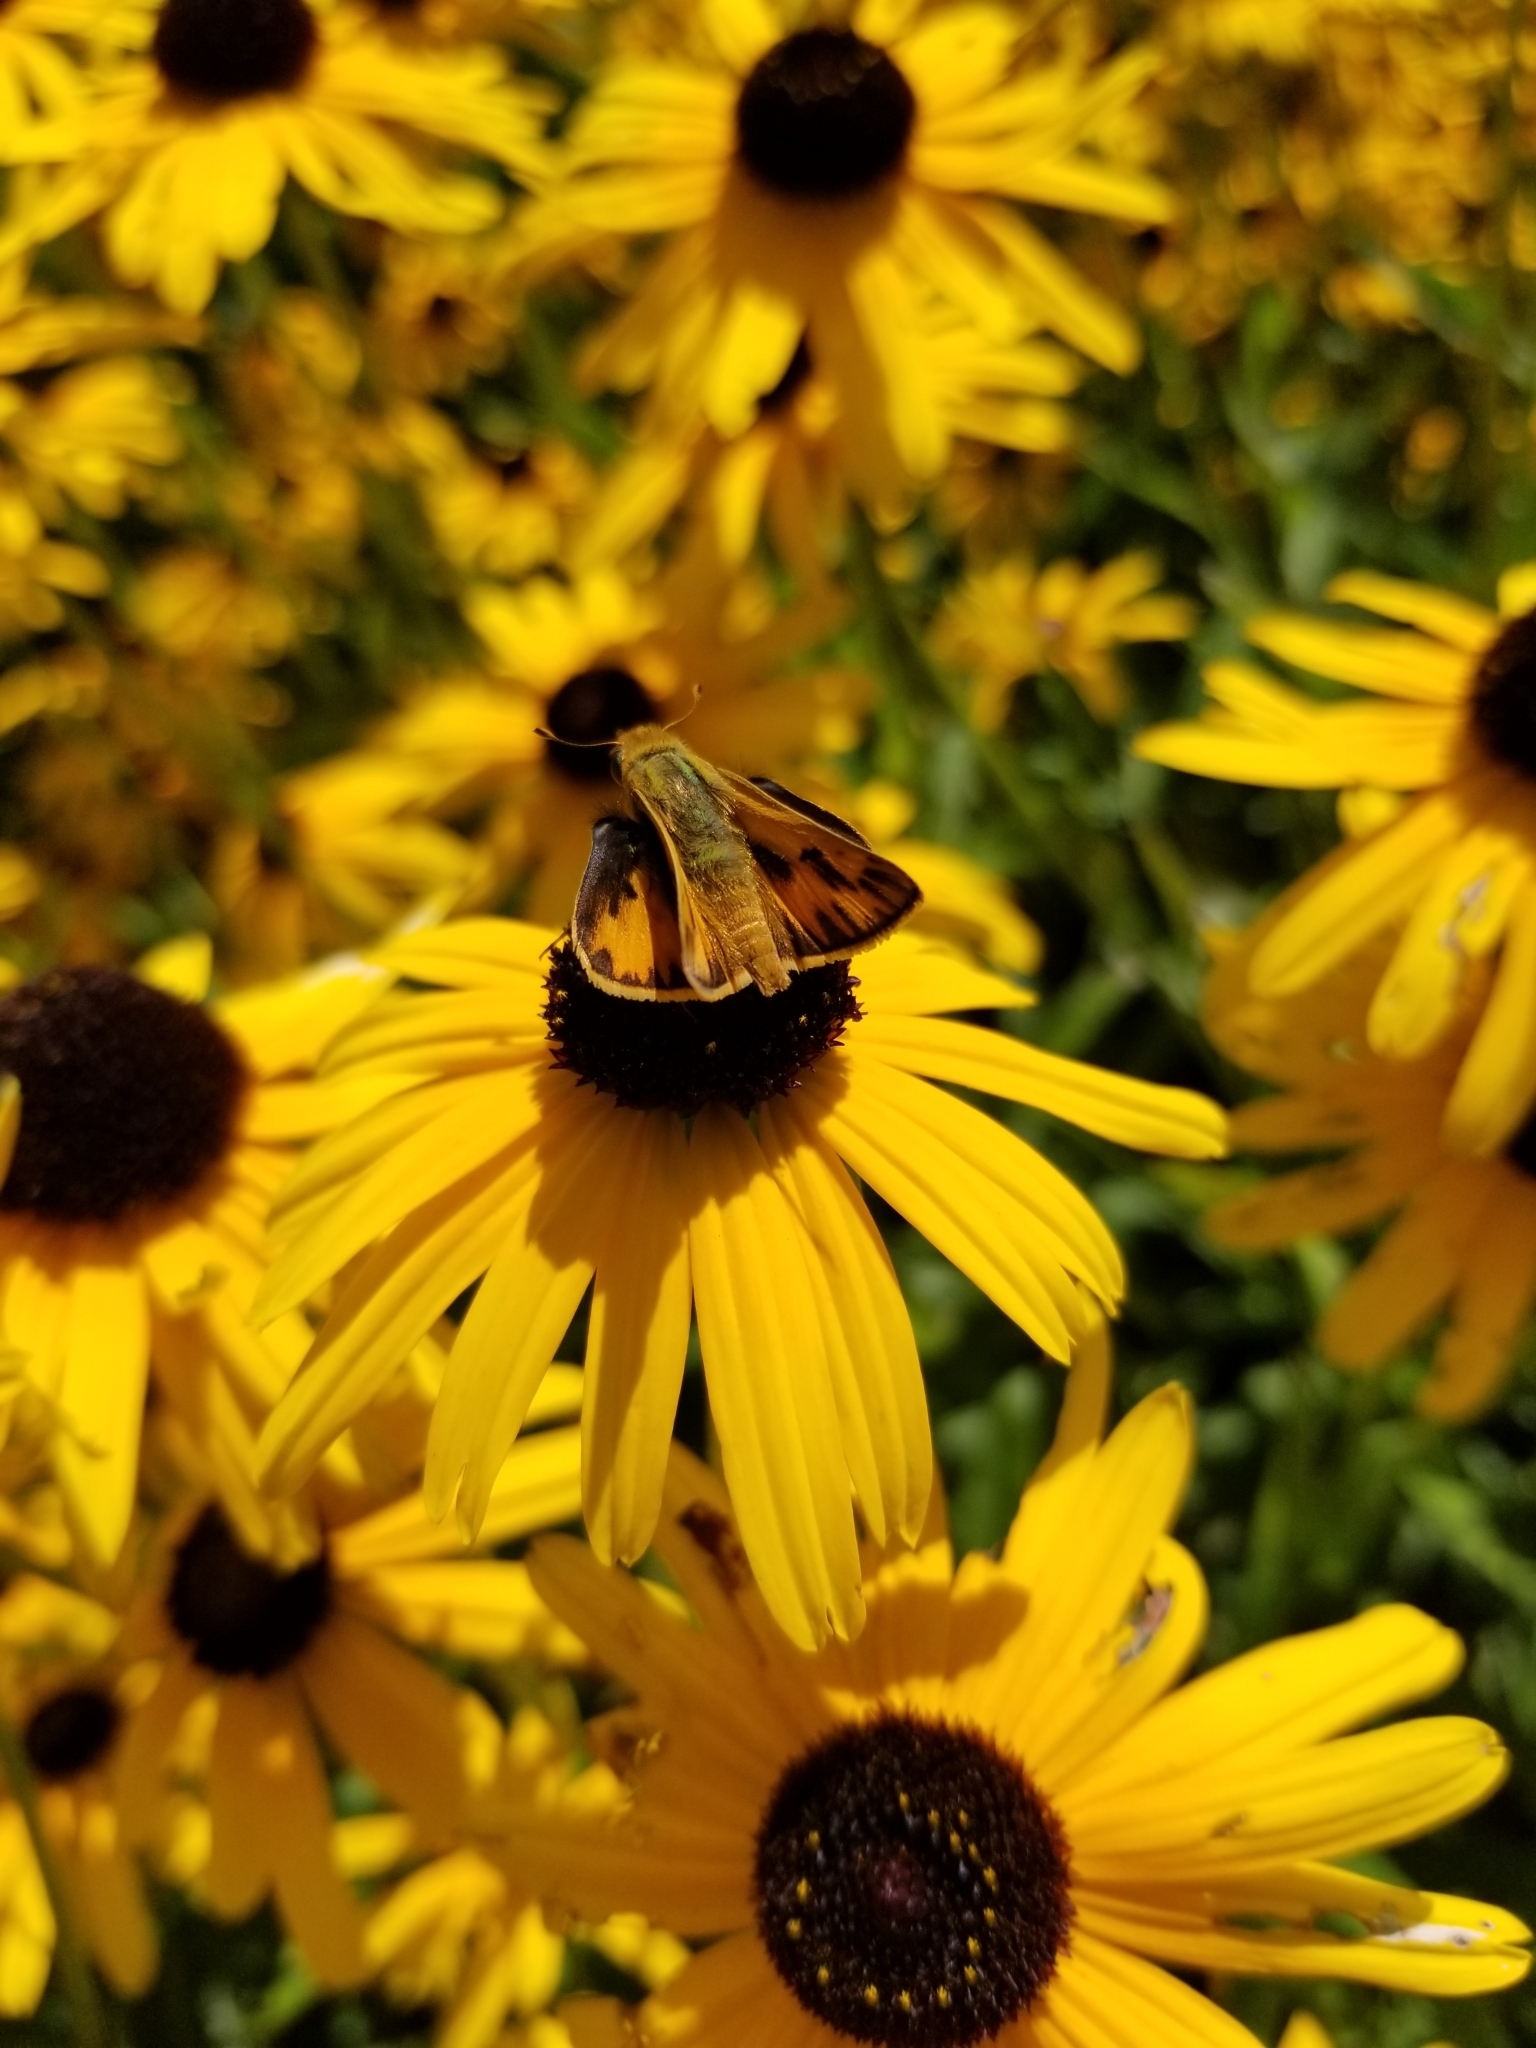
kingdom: Animalia
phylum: Arthropoda
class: Insecta
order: Lepidoptera
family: Hesperiidae
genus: Hylephila
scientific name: Hylephila phyleus
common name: Fiery skipper
